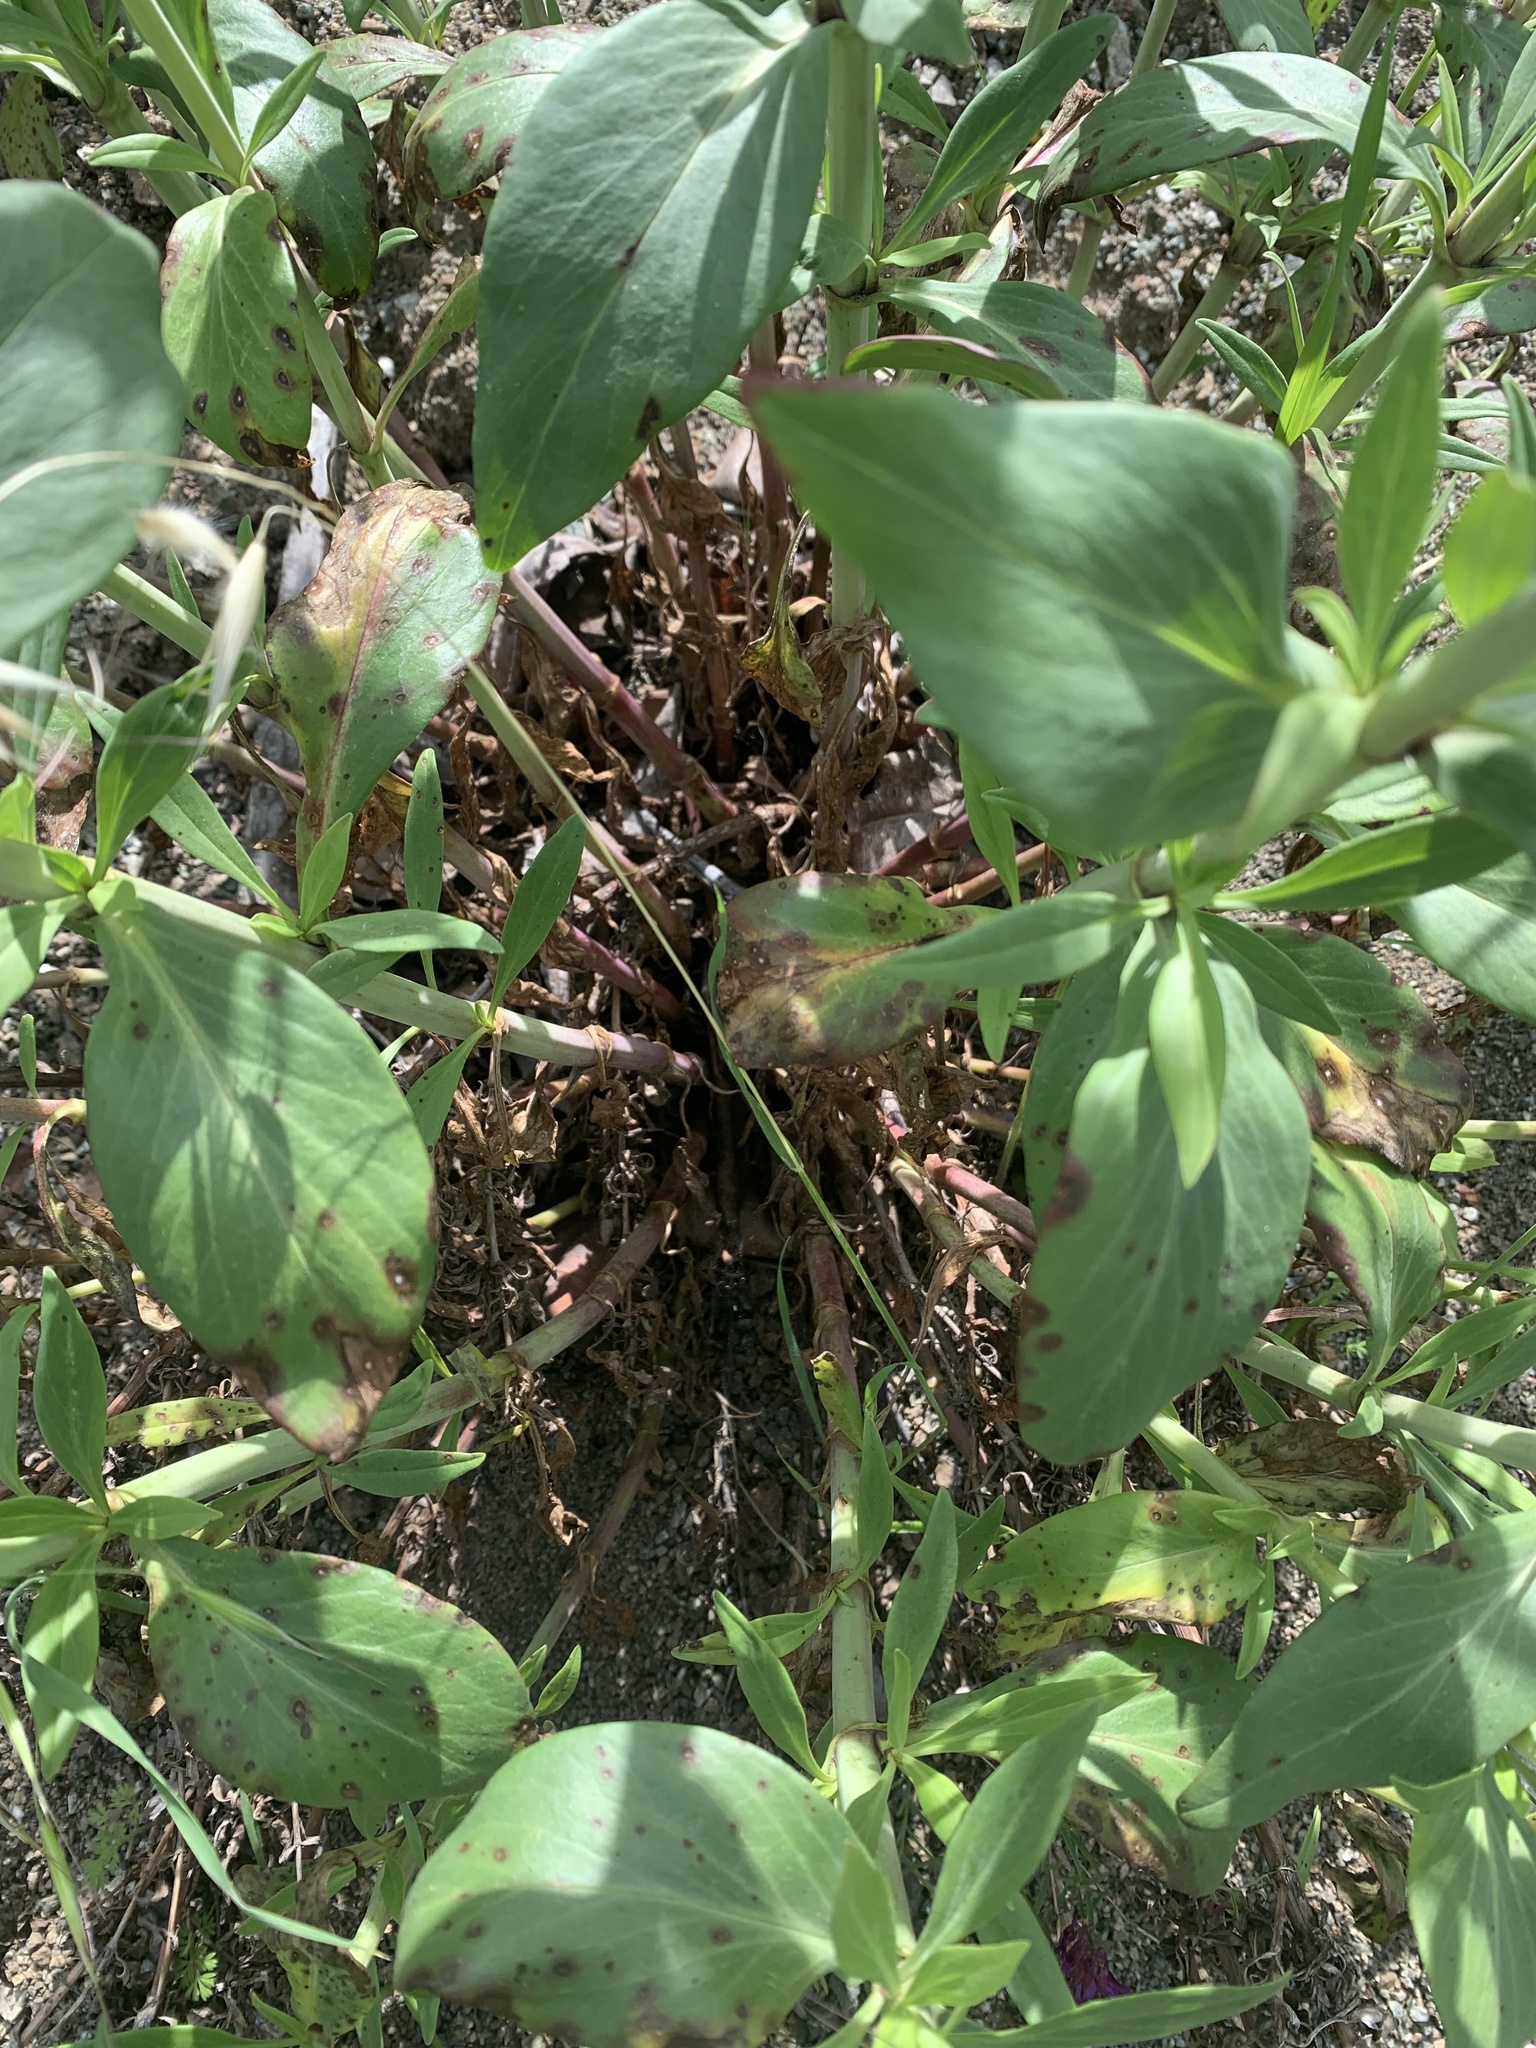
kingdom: Plantae
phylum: Tracheophyta
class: Magnoliopsida
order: Dipsacales
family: Caprifoliaceae
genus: Centranthus
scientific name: Centranthus ruber
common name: Red valerian
